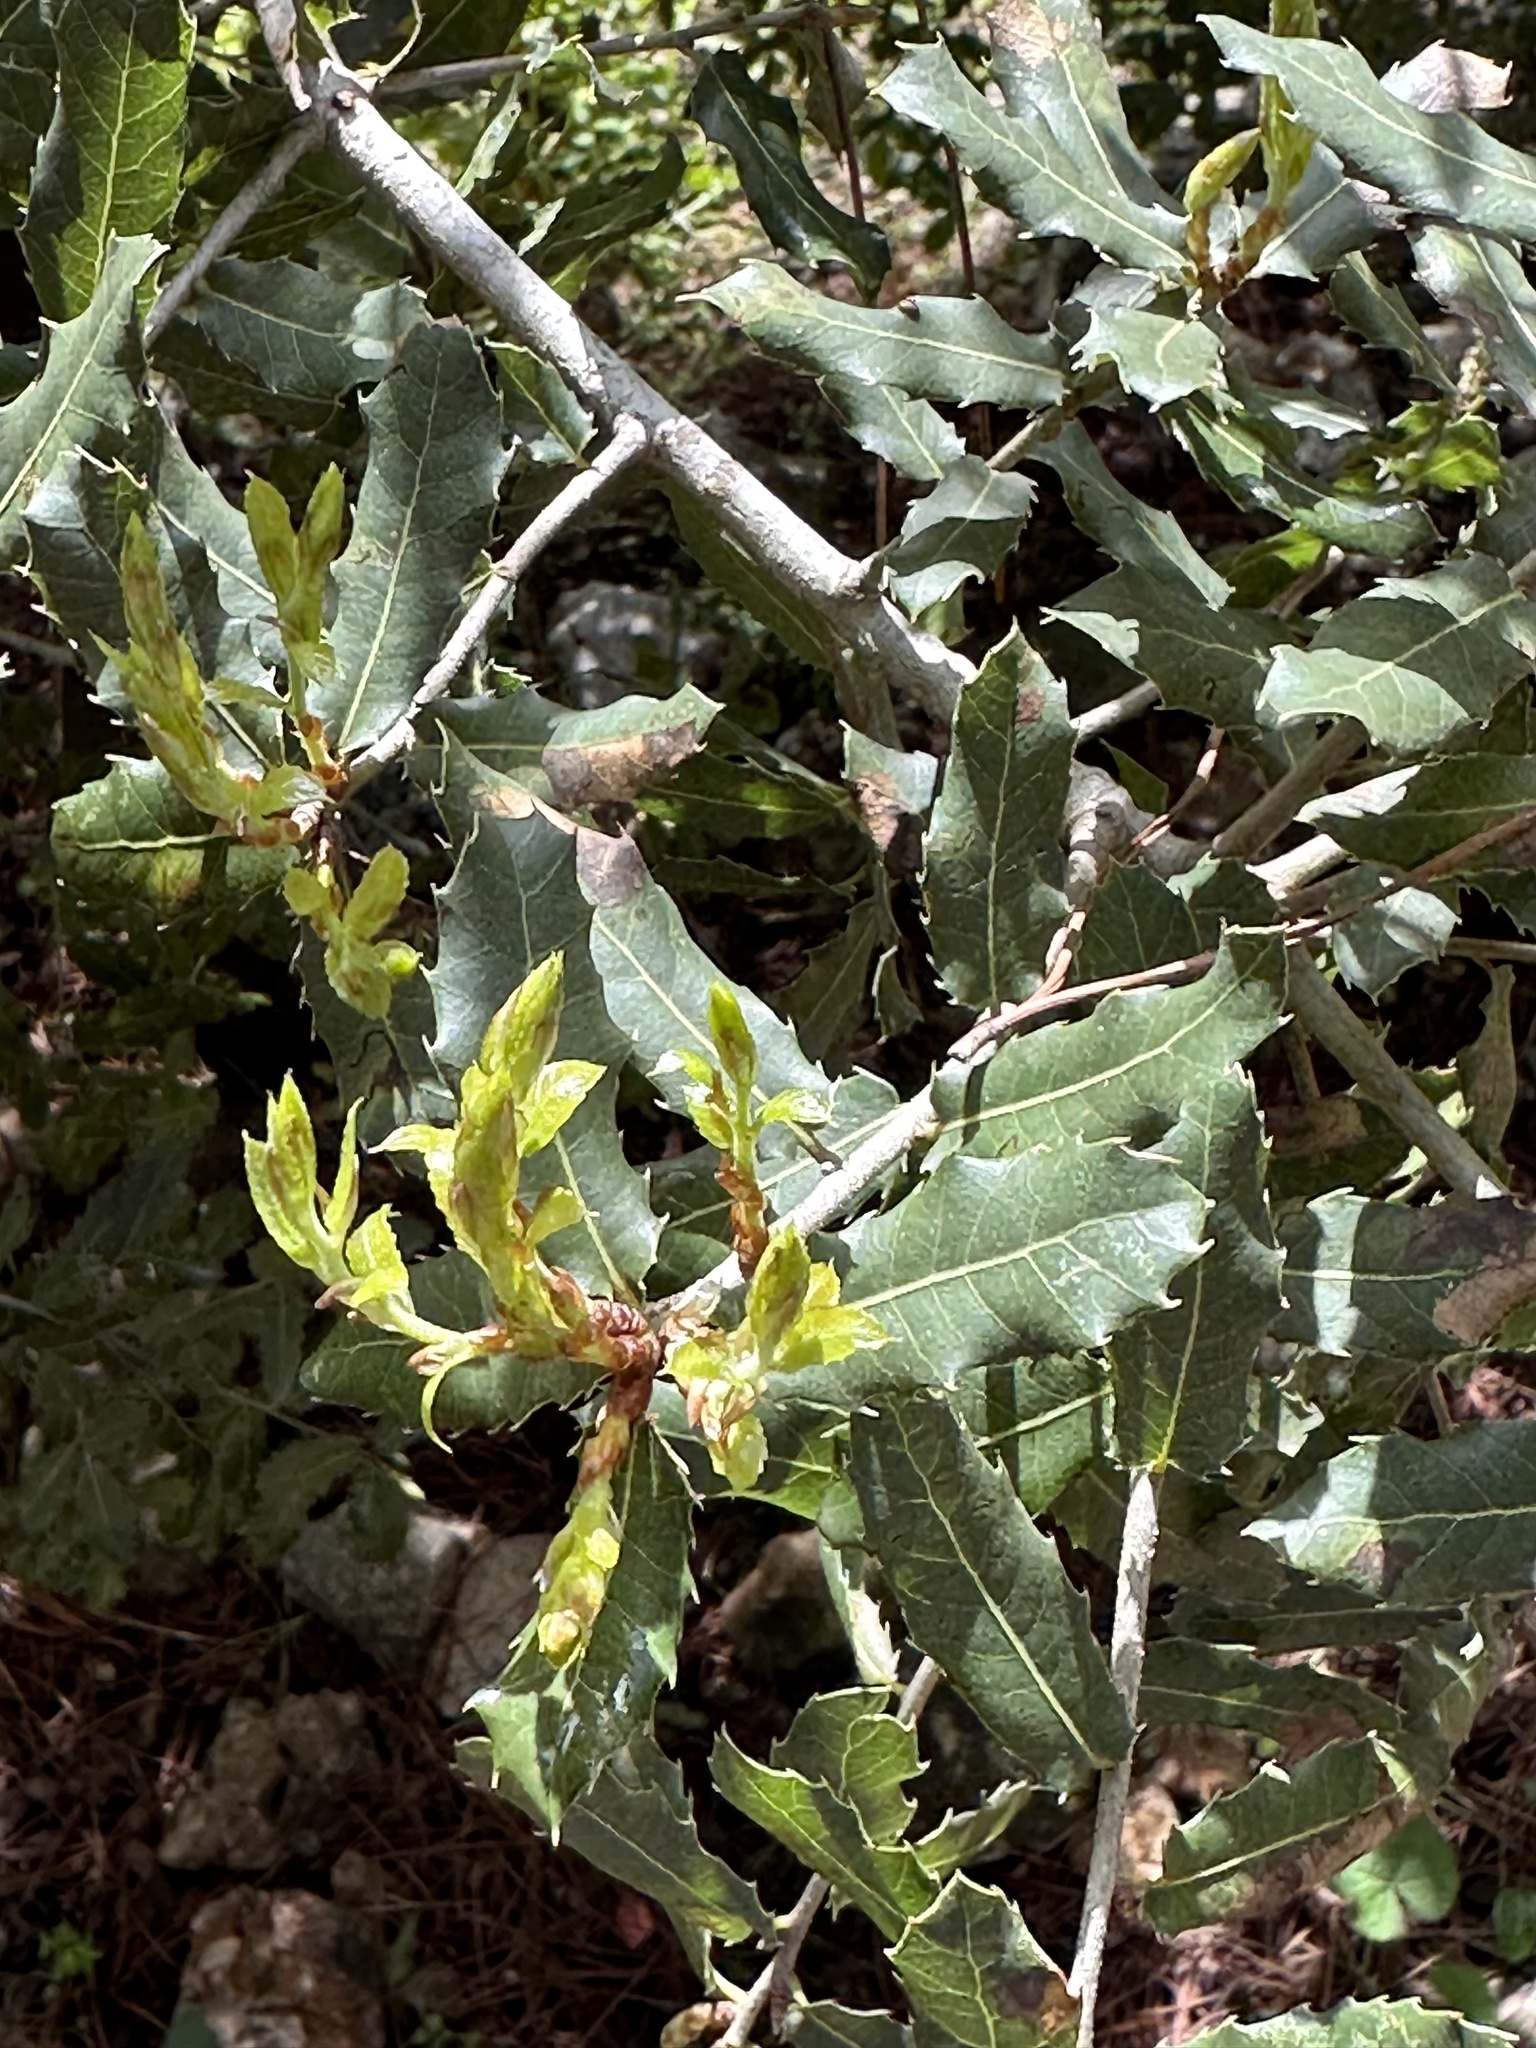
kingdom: Plantae
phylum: Tracheophyta
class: Magnoliopsida
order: Fagales
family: Fagaceae
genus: Quercus
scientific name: Quercus coccifera
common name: Kermes oak
